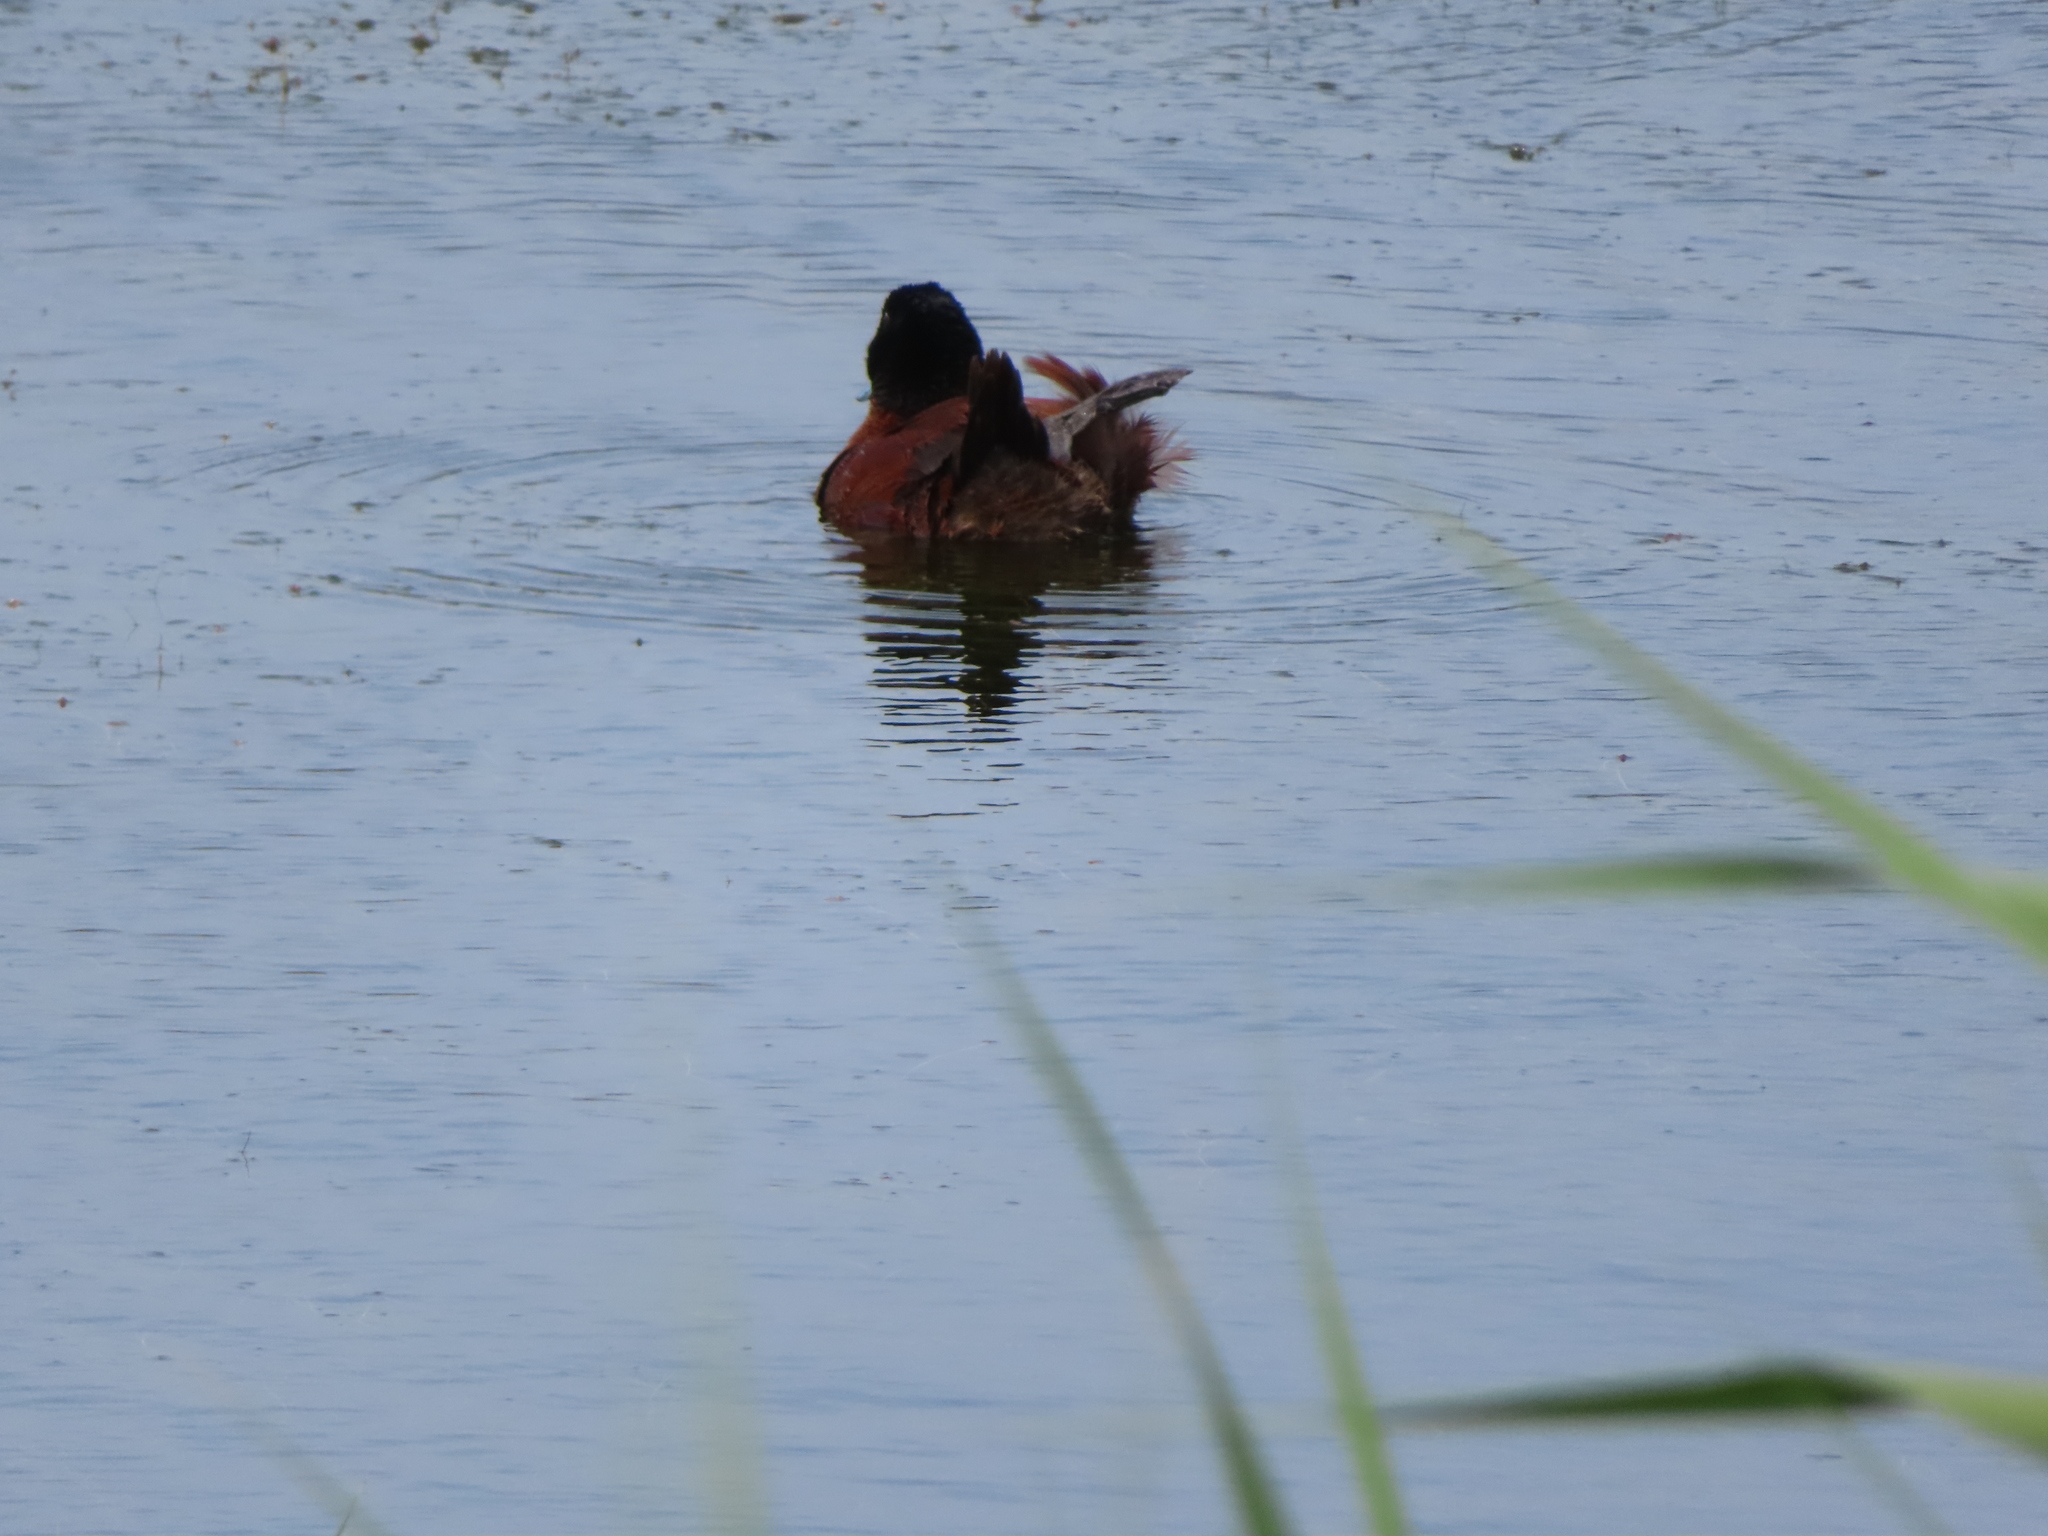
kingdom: Animalia
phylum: Chordata
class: Aves
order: Anseriformes
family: Anatidae
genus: Oxyura
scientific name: Oxyura maccoa
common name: Maccoa duck
